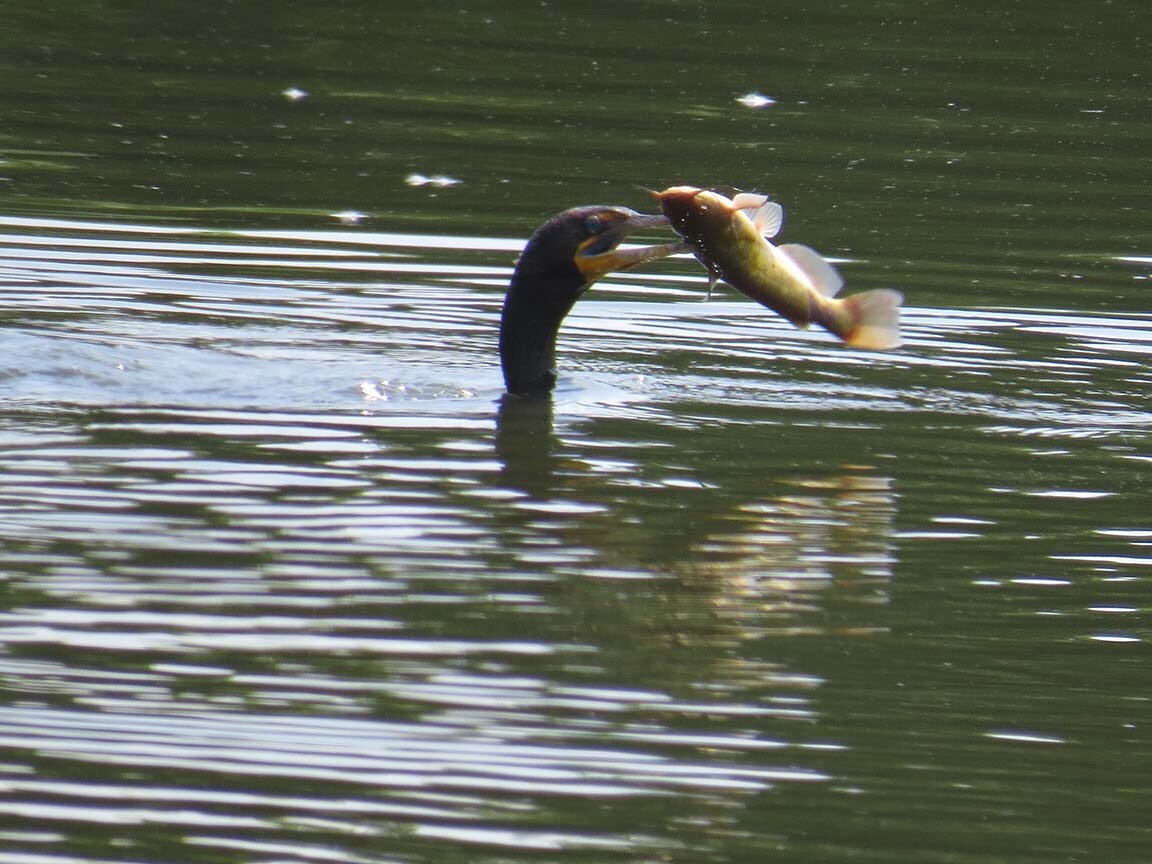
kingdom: Animalia
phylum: Chordata
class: Aves
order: Suliformes
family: Phalacrocoracidae
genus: Phalacrocorax
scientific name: Phalacrocorax auritus
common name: Double-crested cormorant
